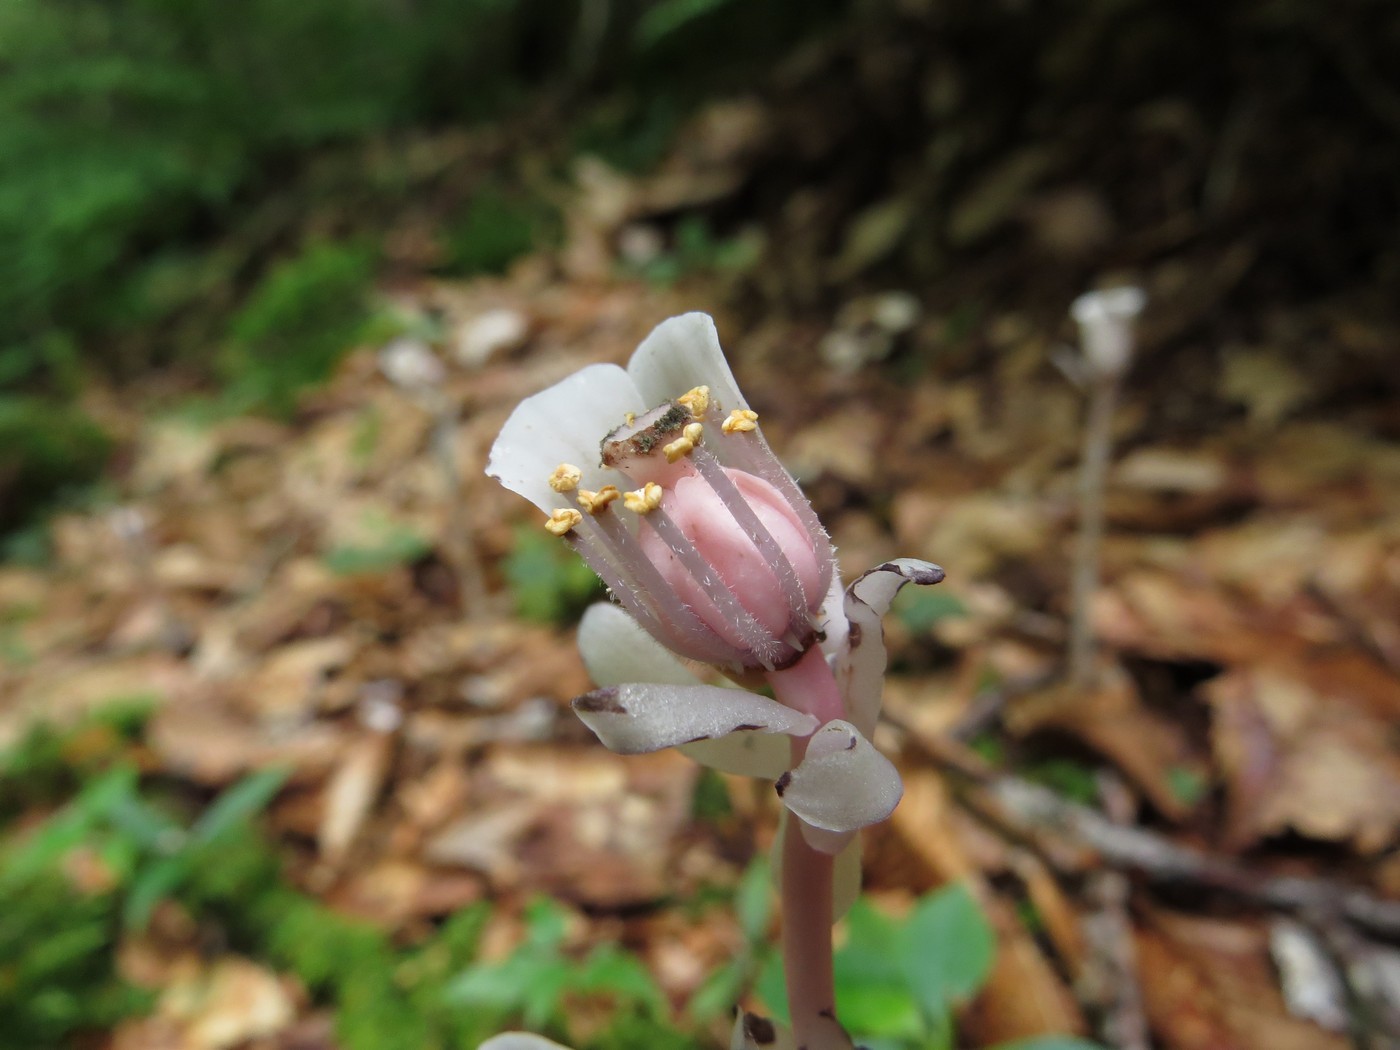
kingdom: Plantae
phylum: Tracheophyta
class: Magnoliopsida
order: Ericales
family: Ericaceae
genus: Monotropa
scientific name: Monotropa uniflora
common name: Convulsion root
